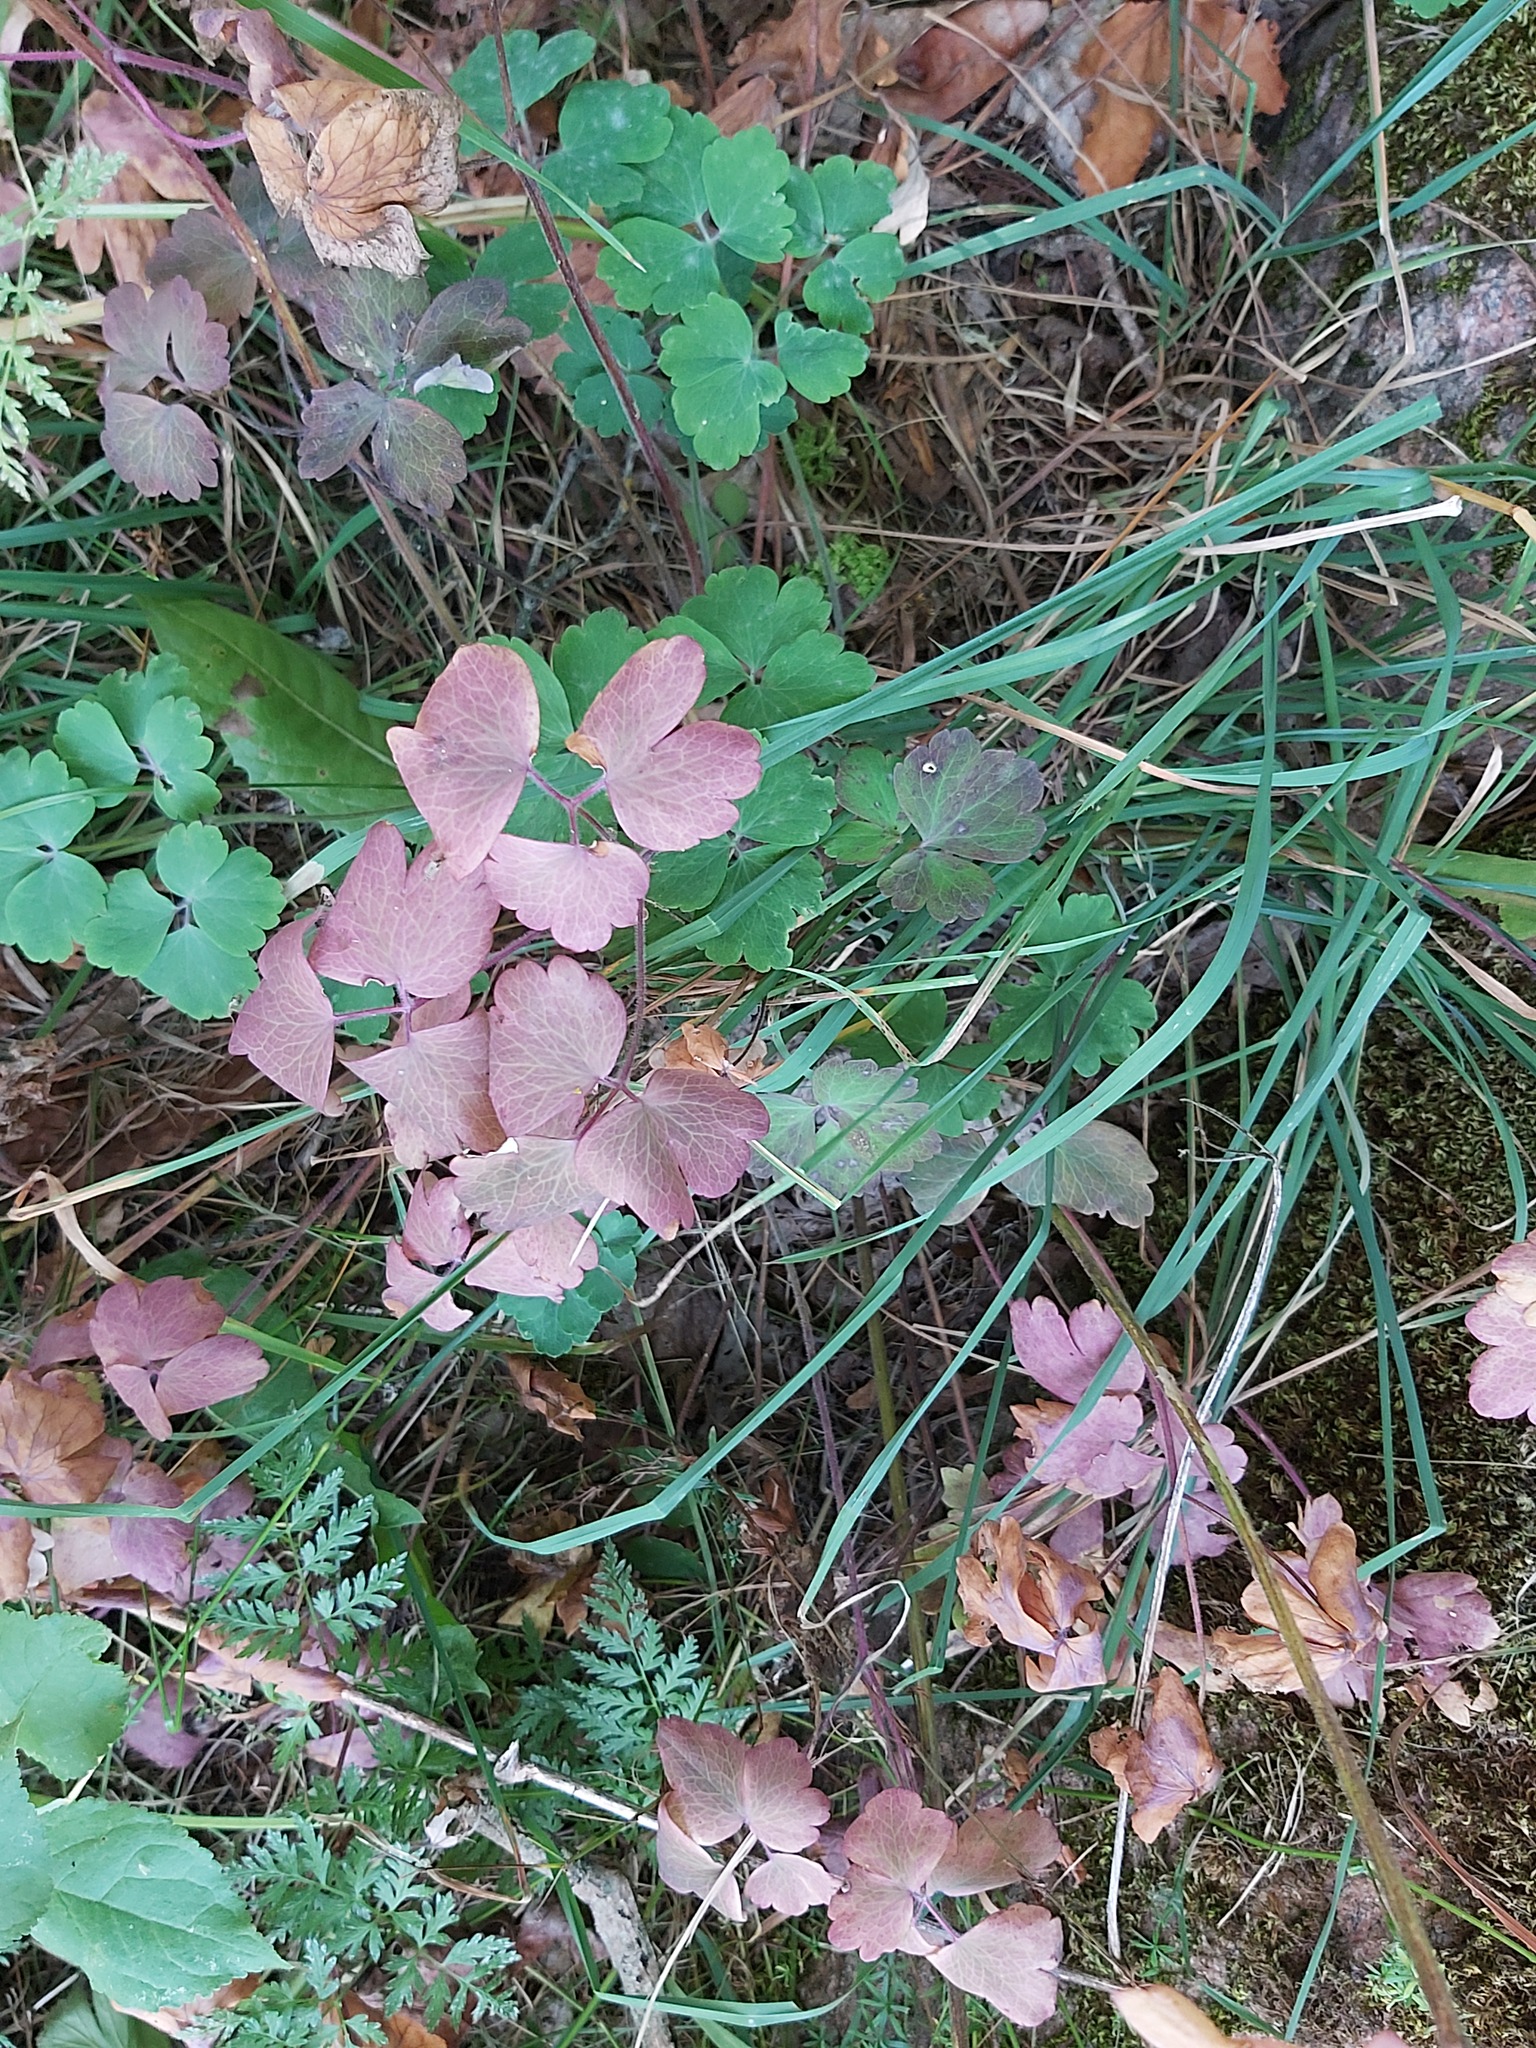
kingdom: Plantae
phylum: Tracheophyta
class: Magnoliopsida
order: Ranunculales
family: Ranunculaceae
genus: Aquilegia
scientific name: Aquilegia vulgaris
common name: Columbine
